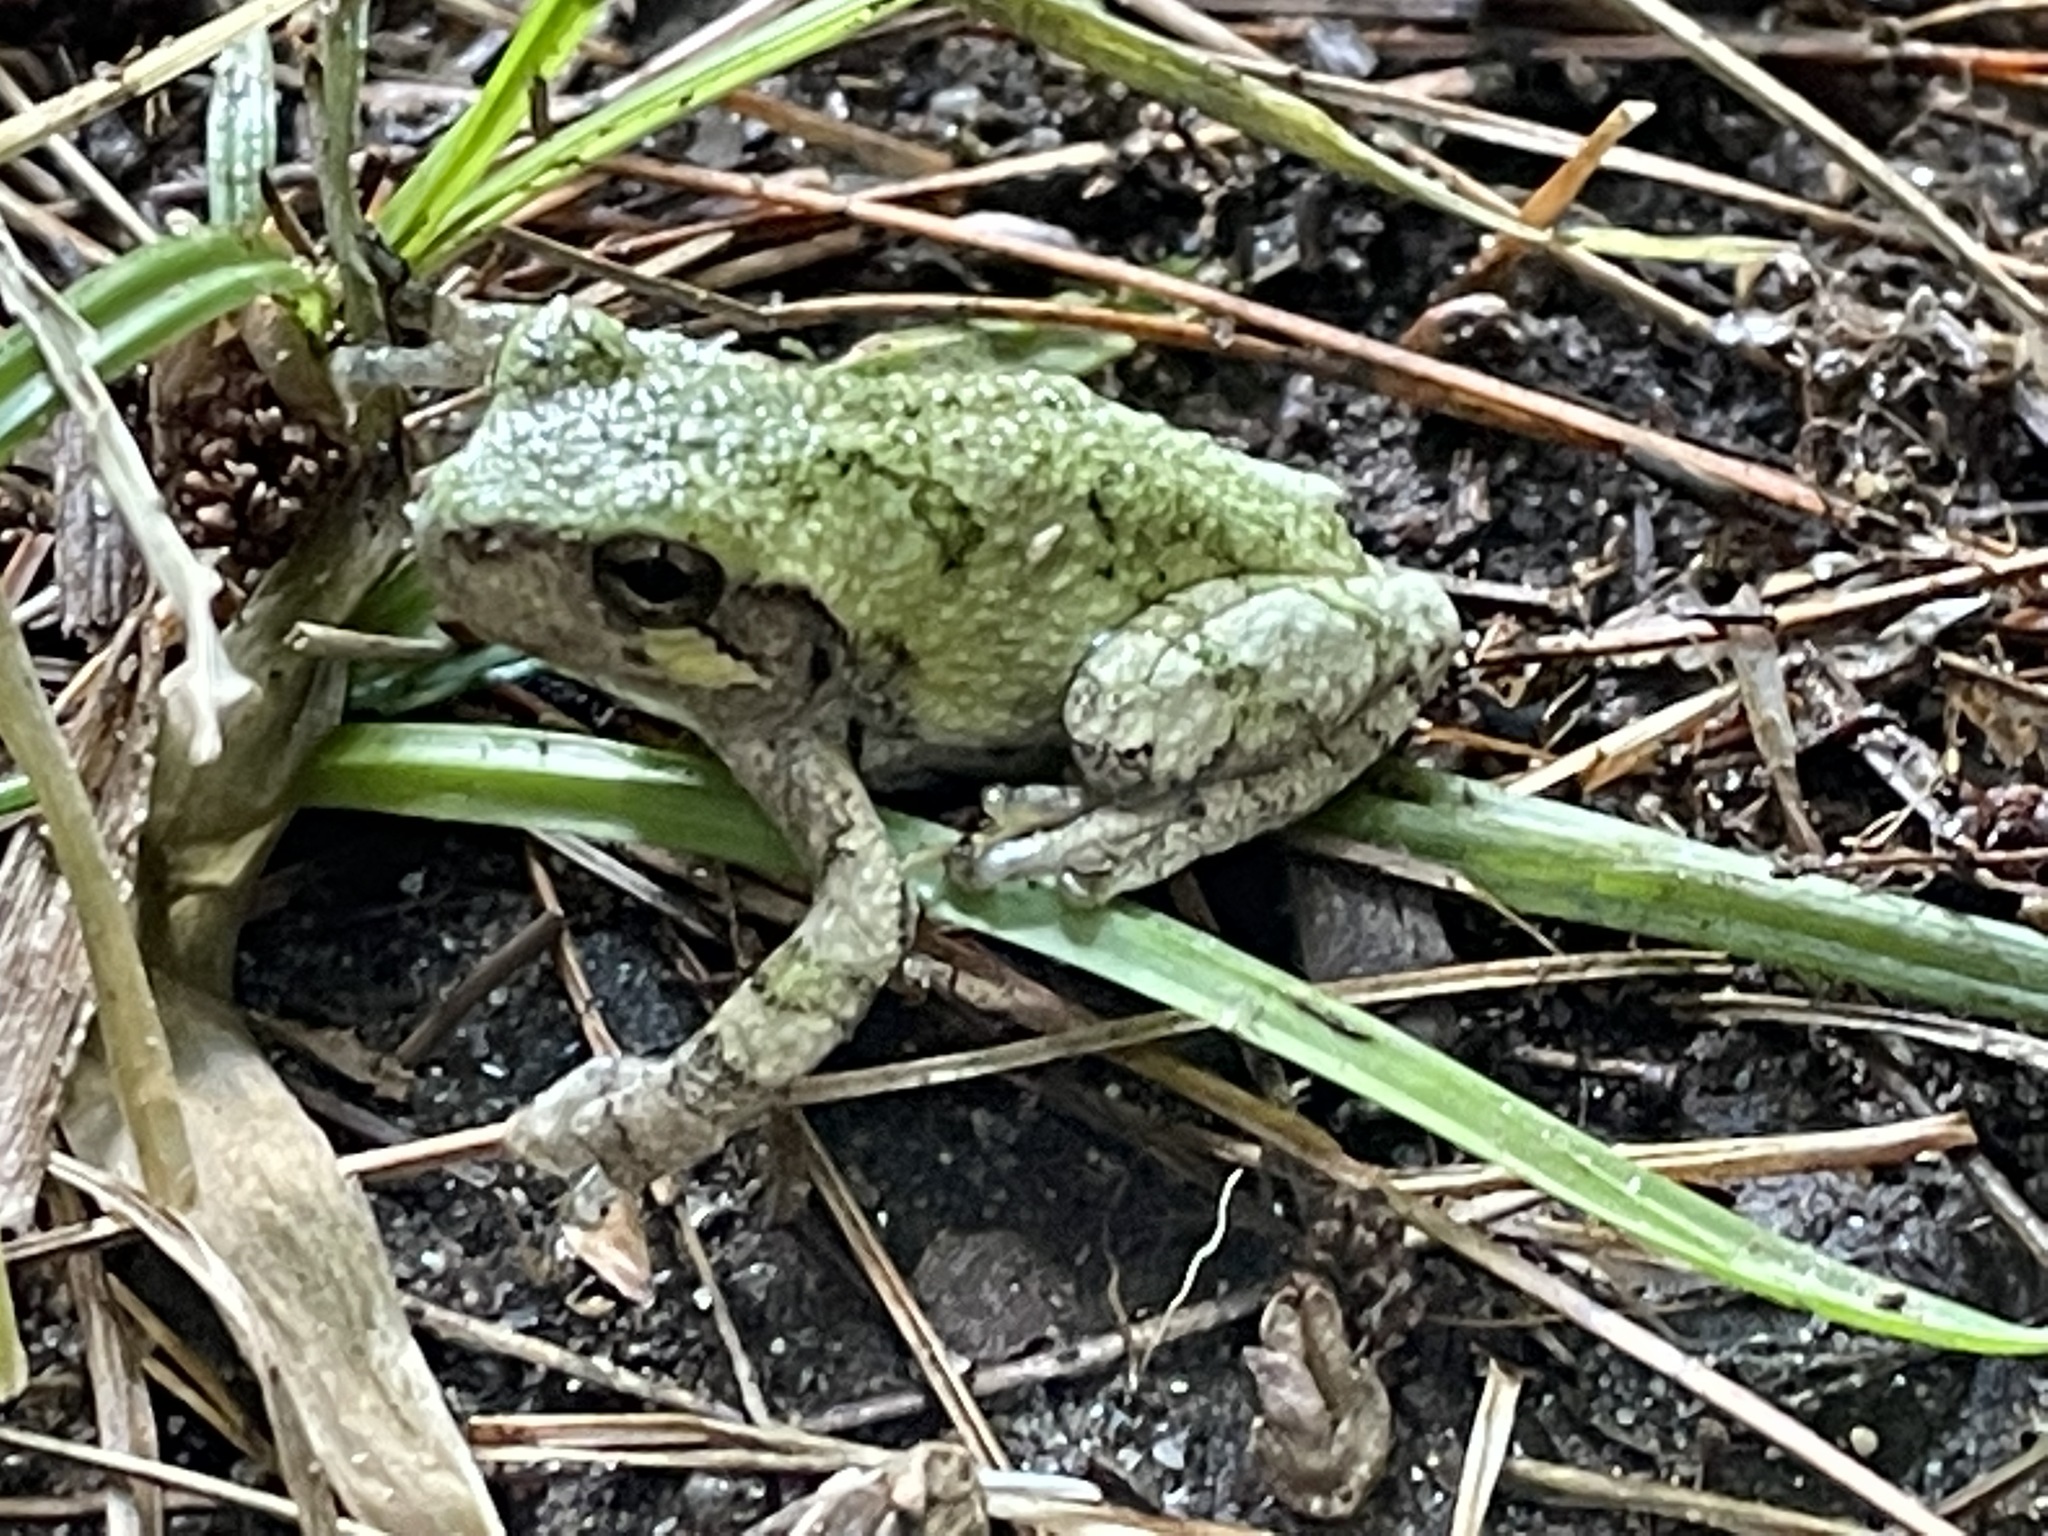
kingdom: Animalia
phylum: Chordata
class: Amphibia
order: Anura
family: Hylidae
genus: Dryophytes
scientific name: Dryophytes versicolor
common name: Gray treefrog
